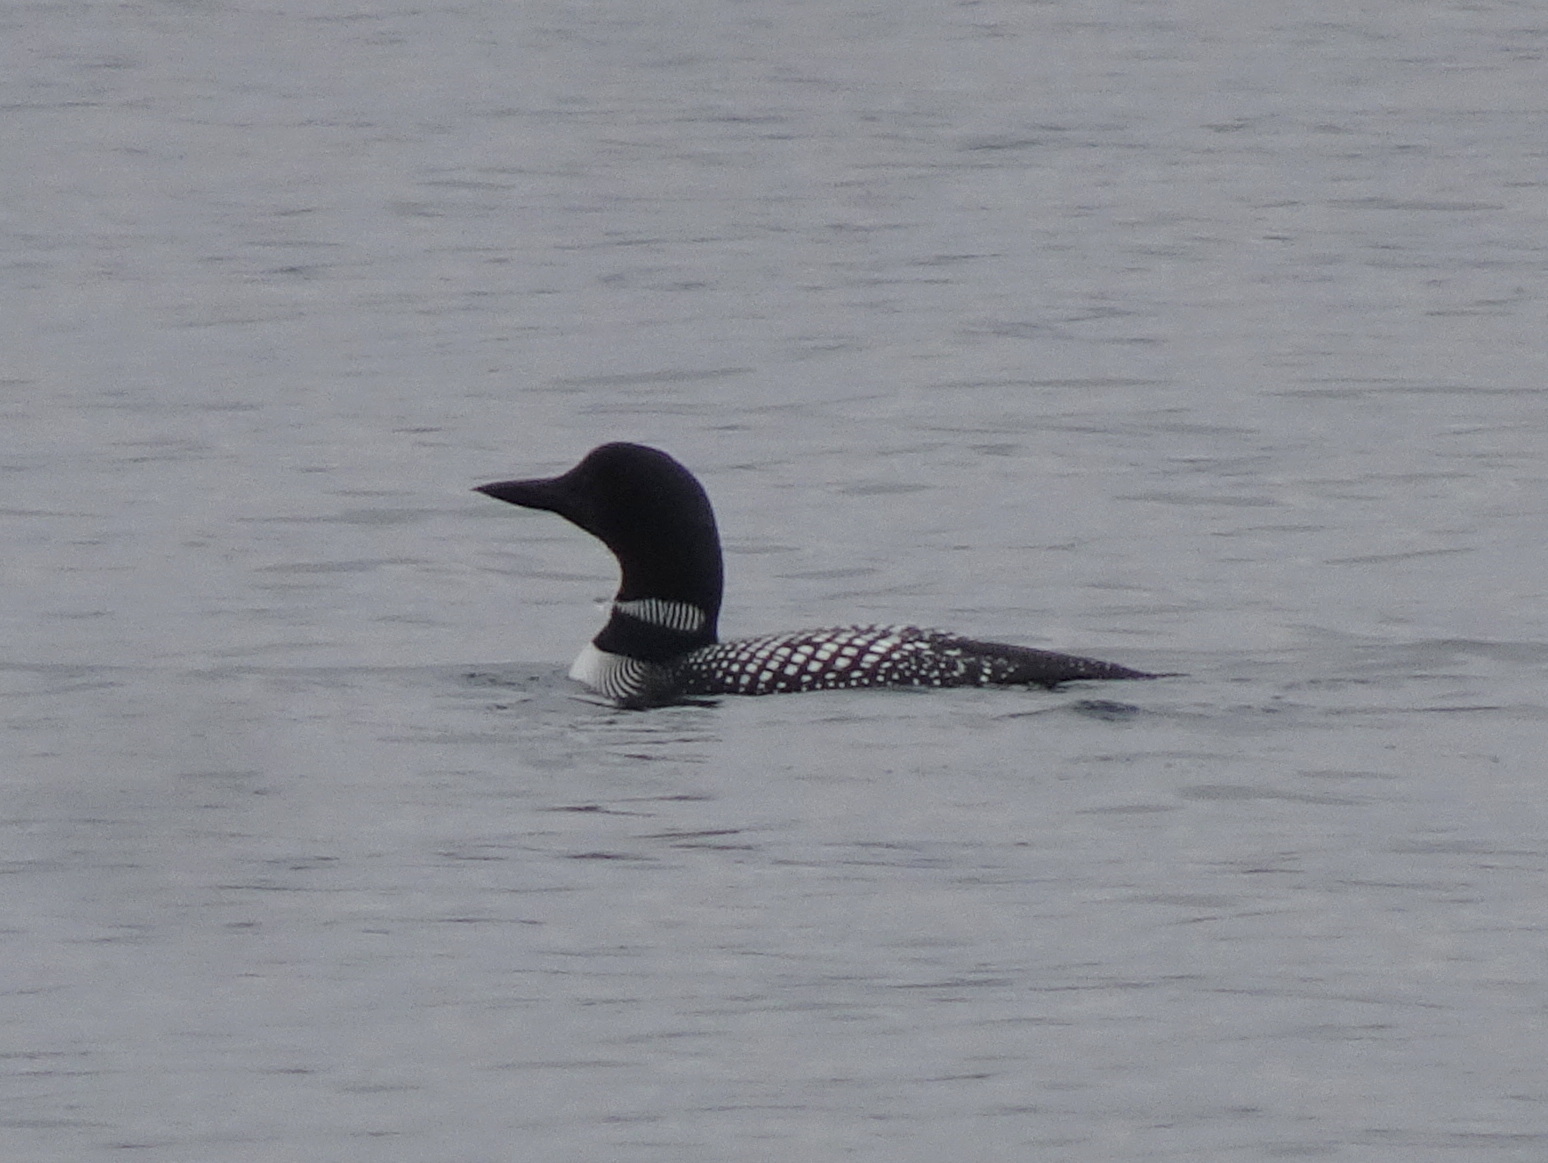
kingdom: Animalia
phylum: Chordata
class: Aves
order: Gaviiformes
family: Gaviidae
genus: Gavia
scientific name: Gavia immer
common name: Common loon
